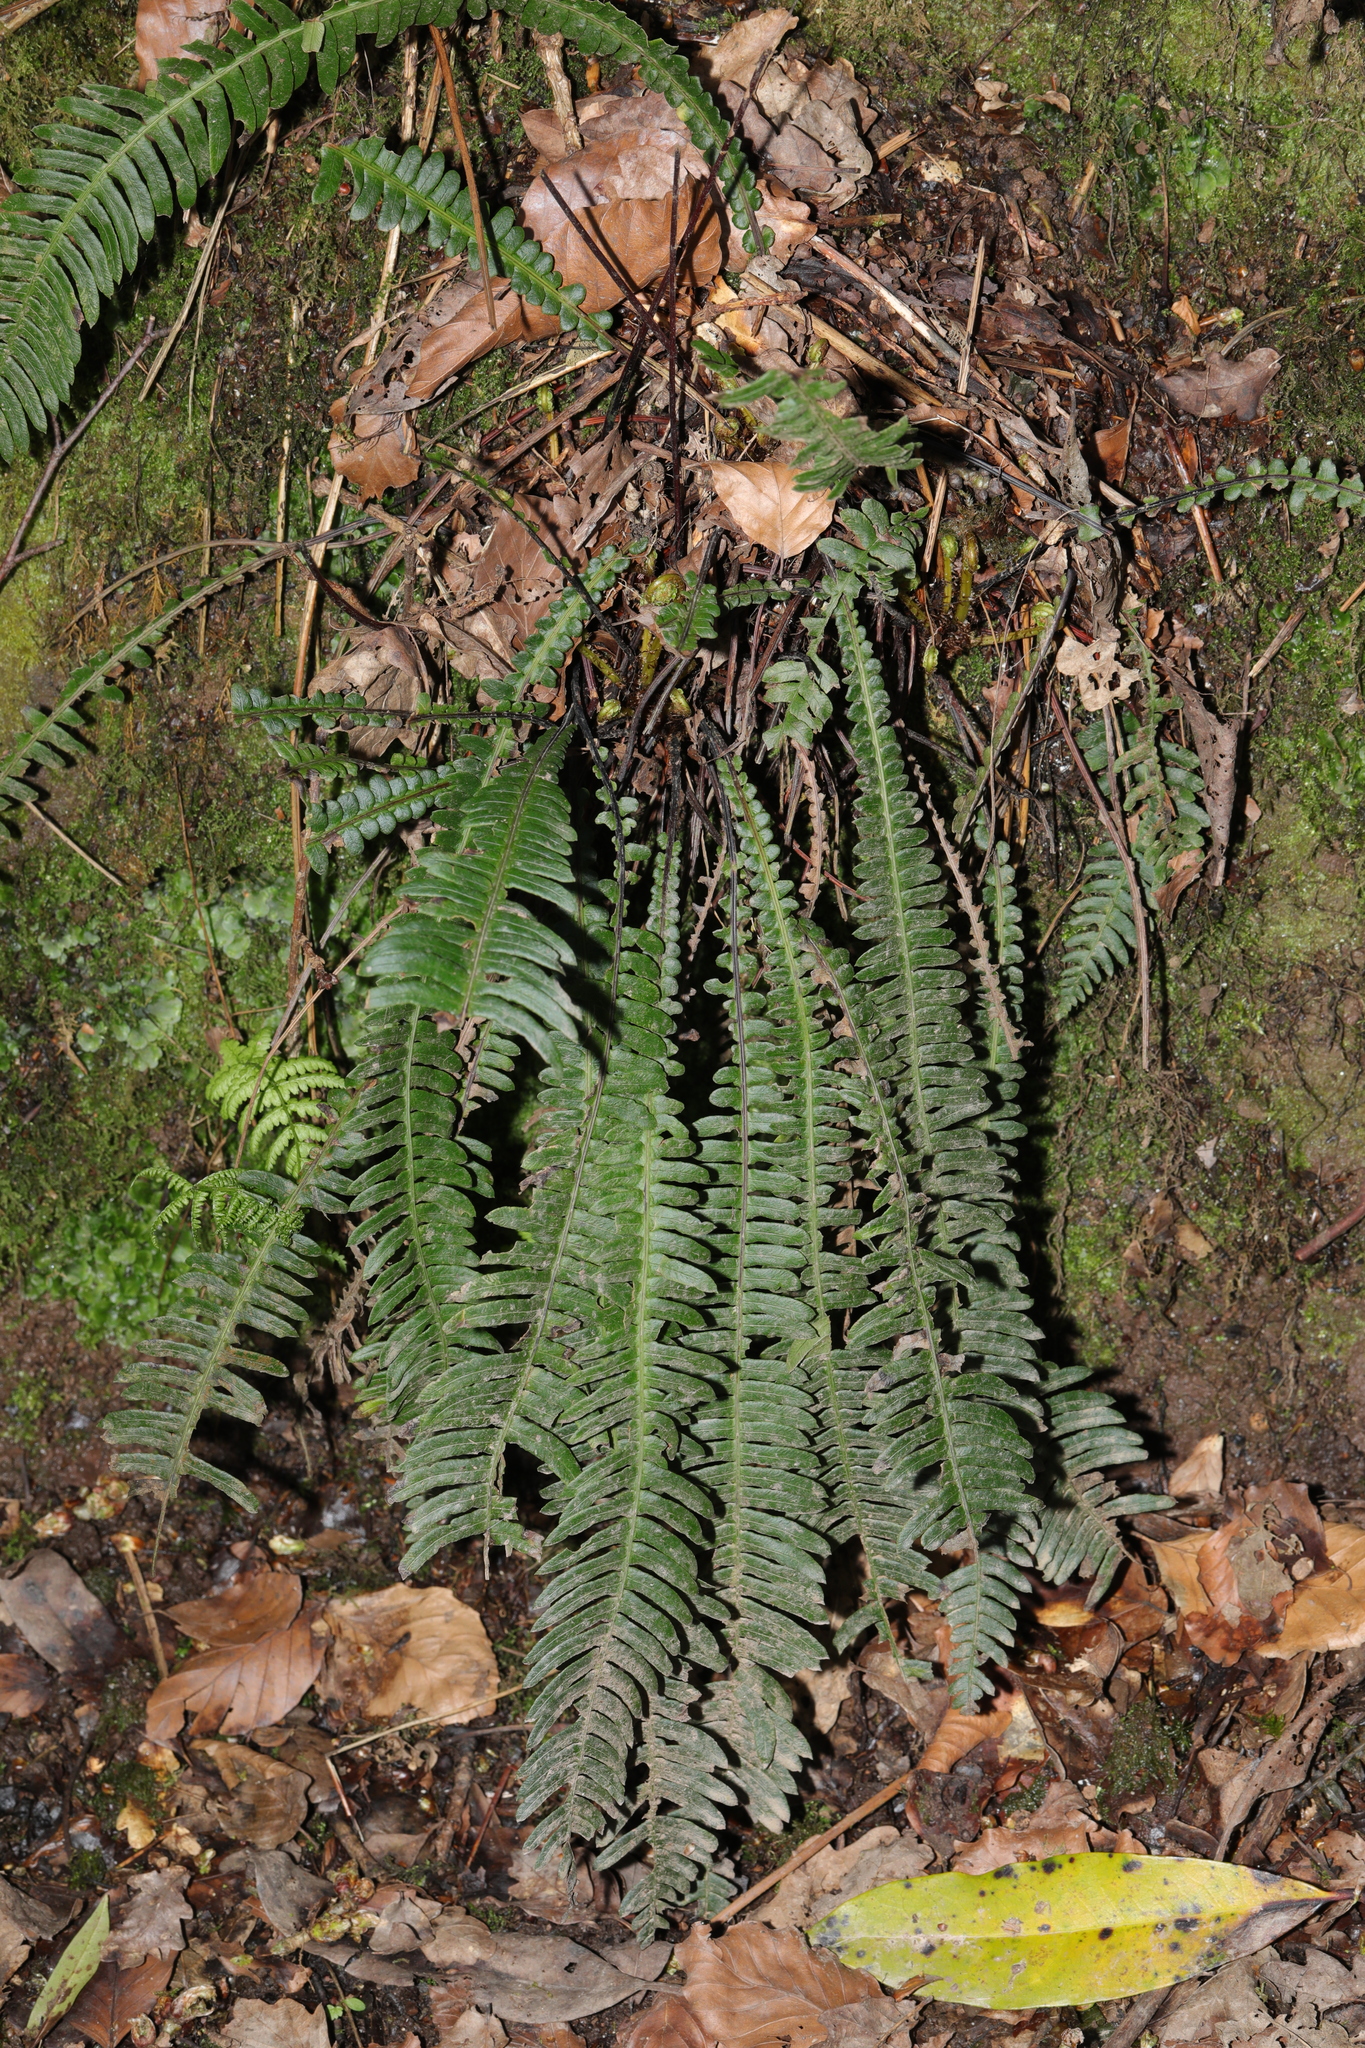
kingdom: Plantae
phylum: Tracheophyta
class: Polypodiopsida
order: Polypodiales
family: Blechnaceae
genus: Struthiopteris
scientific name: Struthiopteris spicant
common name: Deer fern
